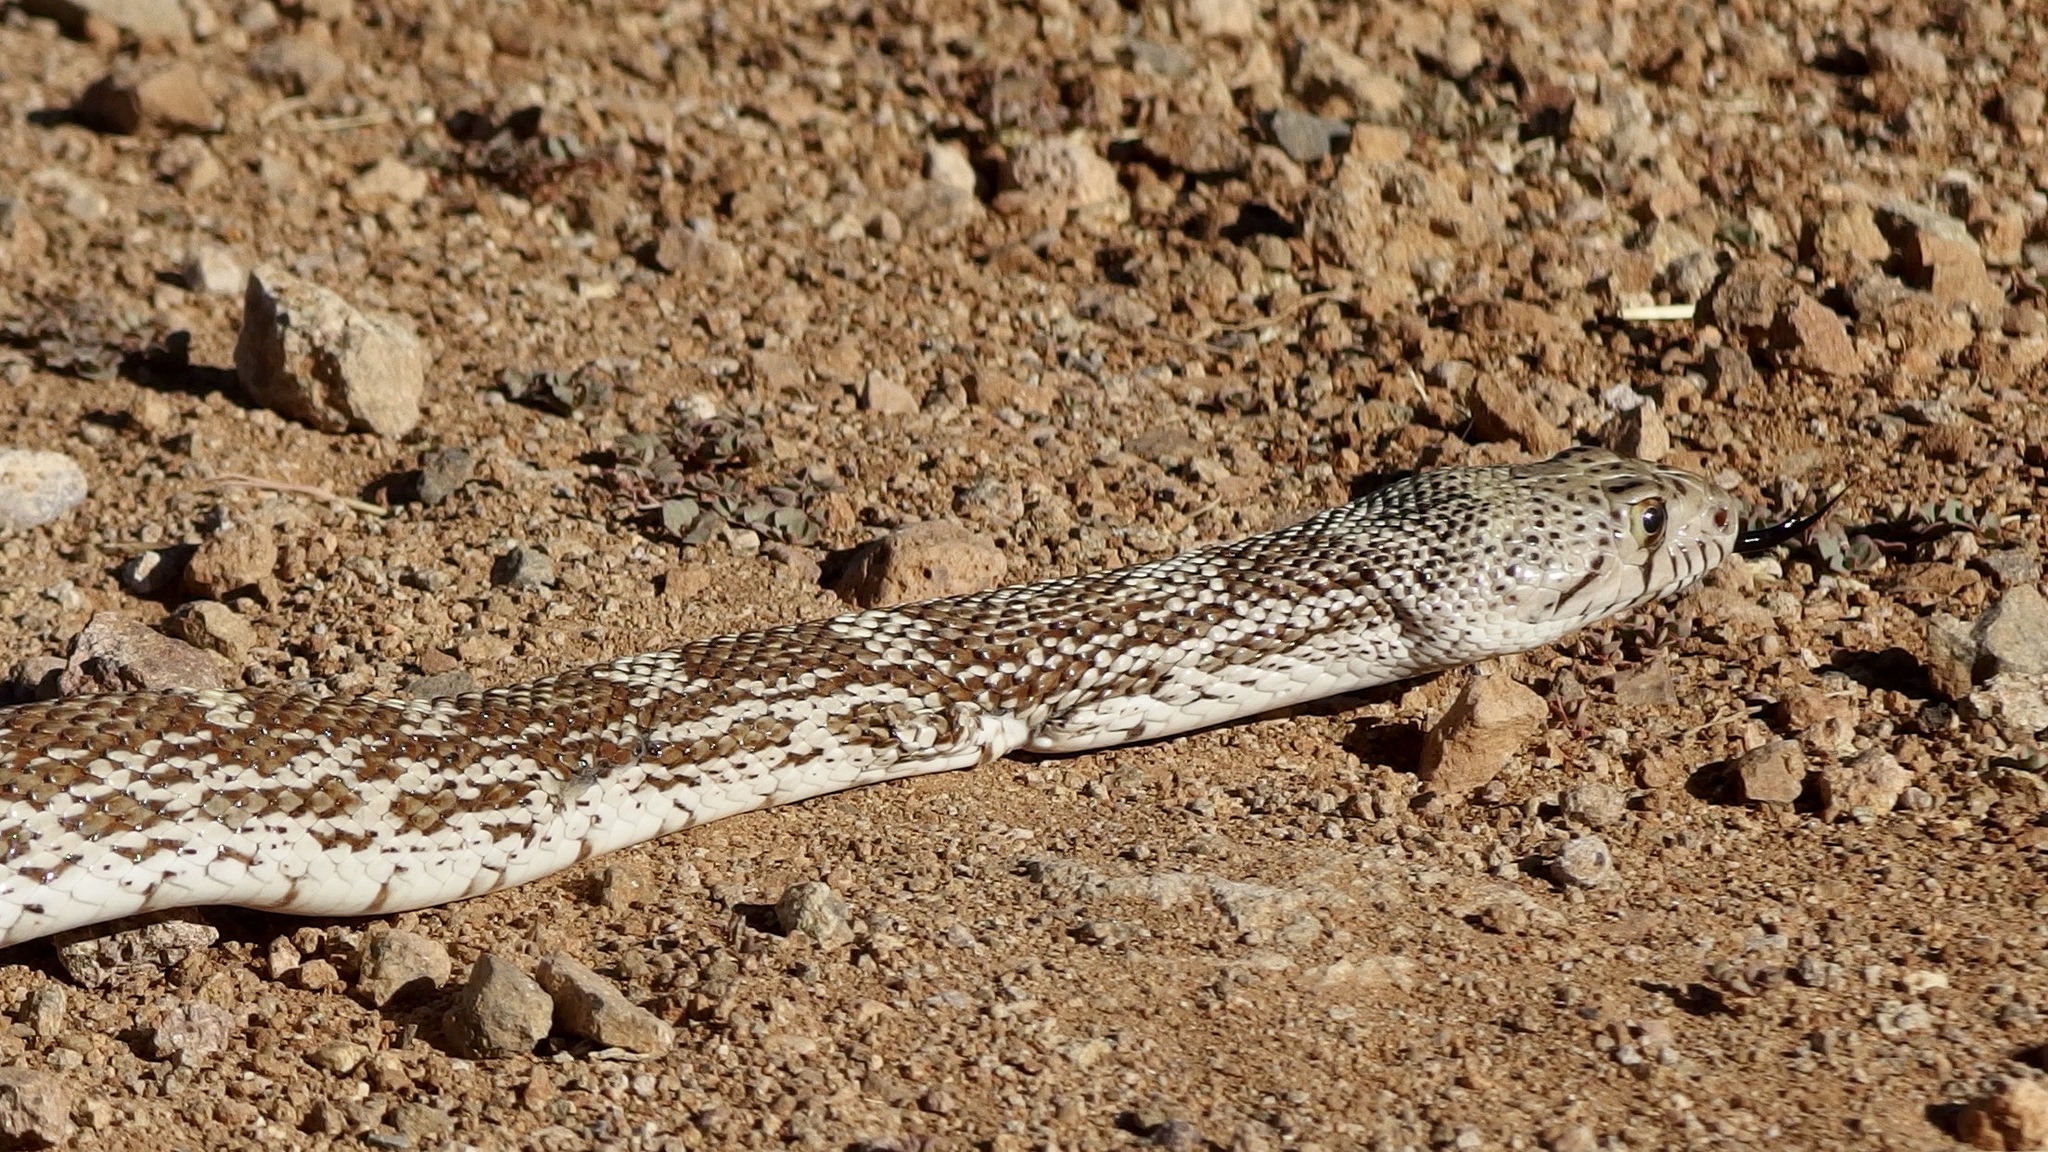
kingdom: Animalia
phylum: Chordata
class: Squamata
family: Colubridae
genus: Pituophis
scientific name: Pituophis catenifer
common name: Gopher snake
